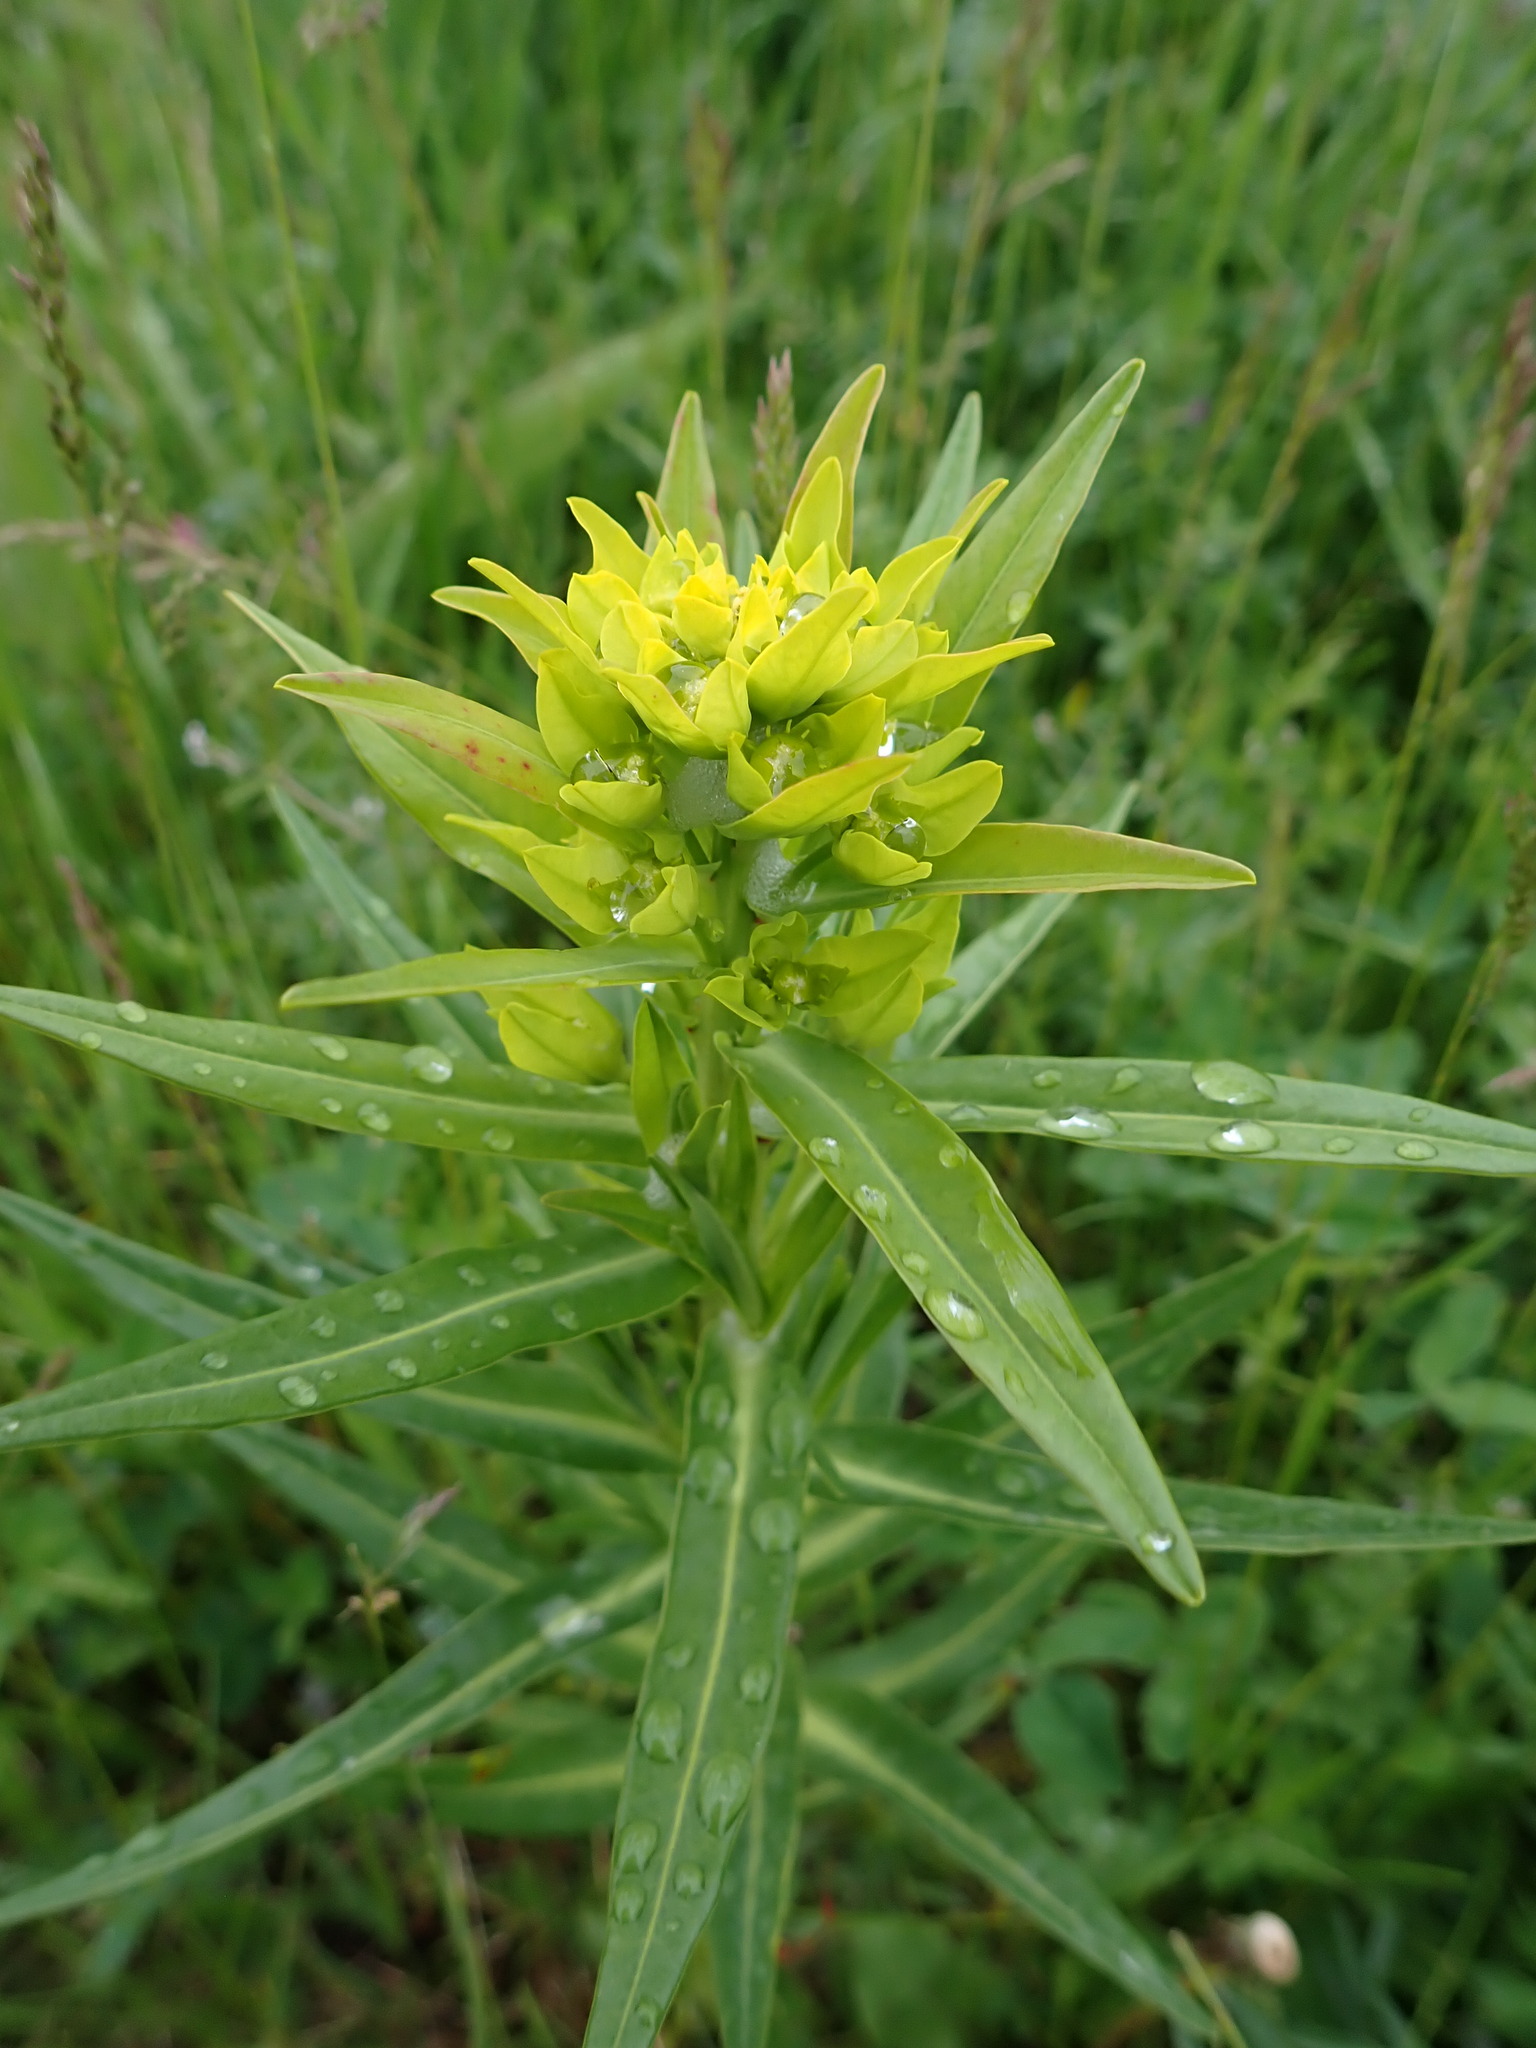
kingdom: Plantae
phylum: Tracheophyta
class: Magnoliopsida
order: Malpighiales
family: Euphorbiaceae
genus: Euphorbia
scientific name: Euphorbia lucida
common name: Shining spurge
